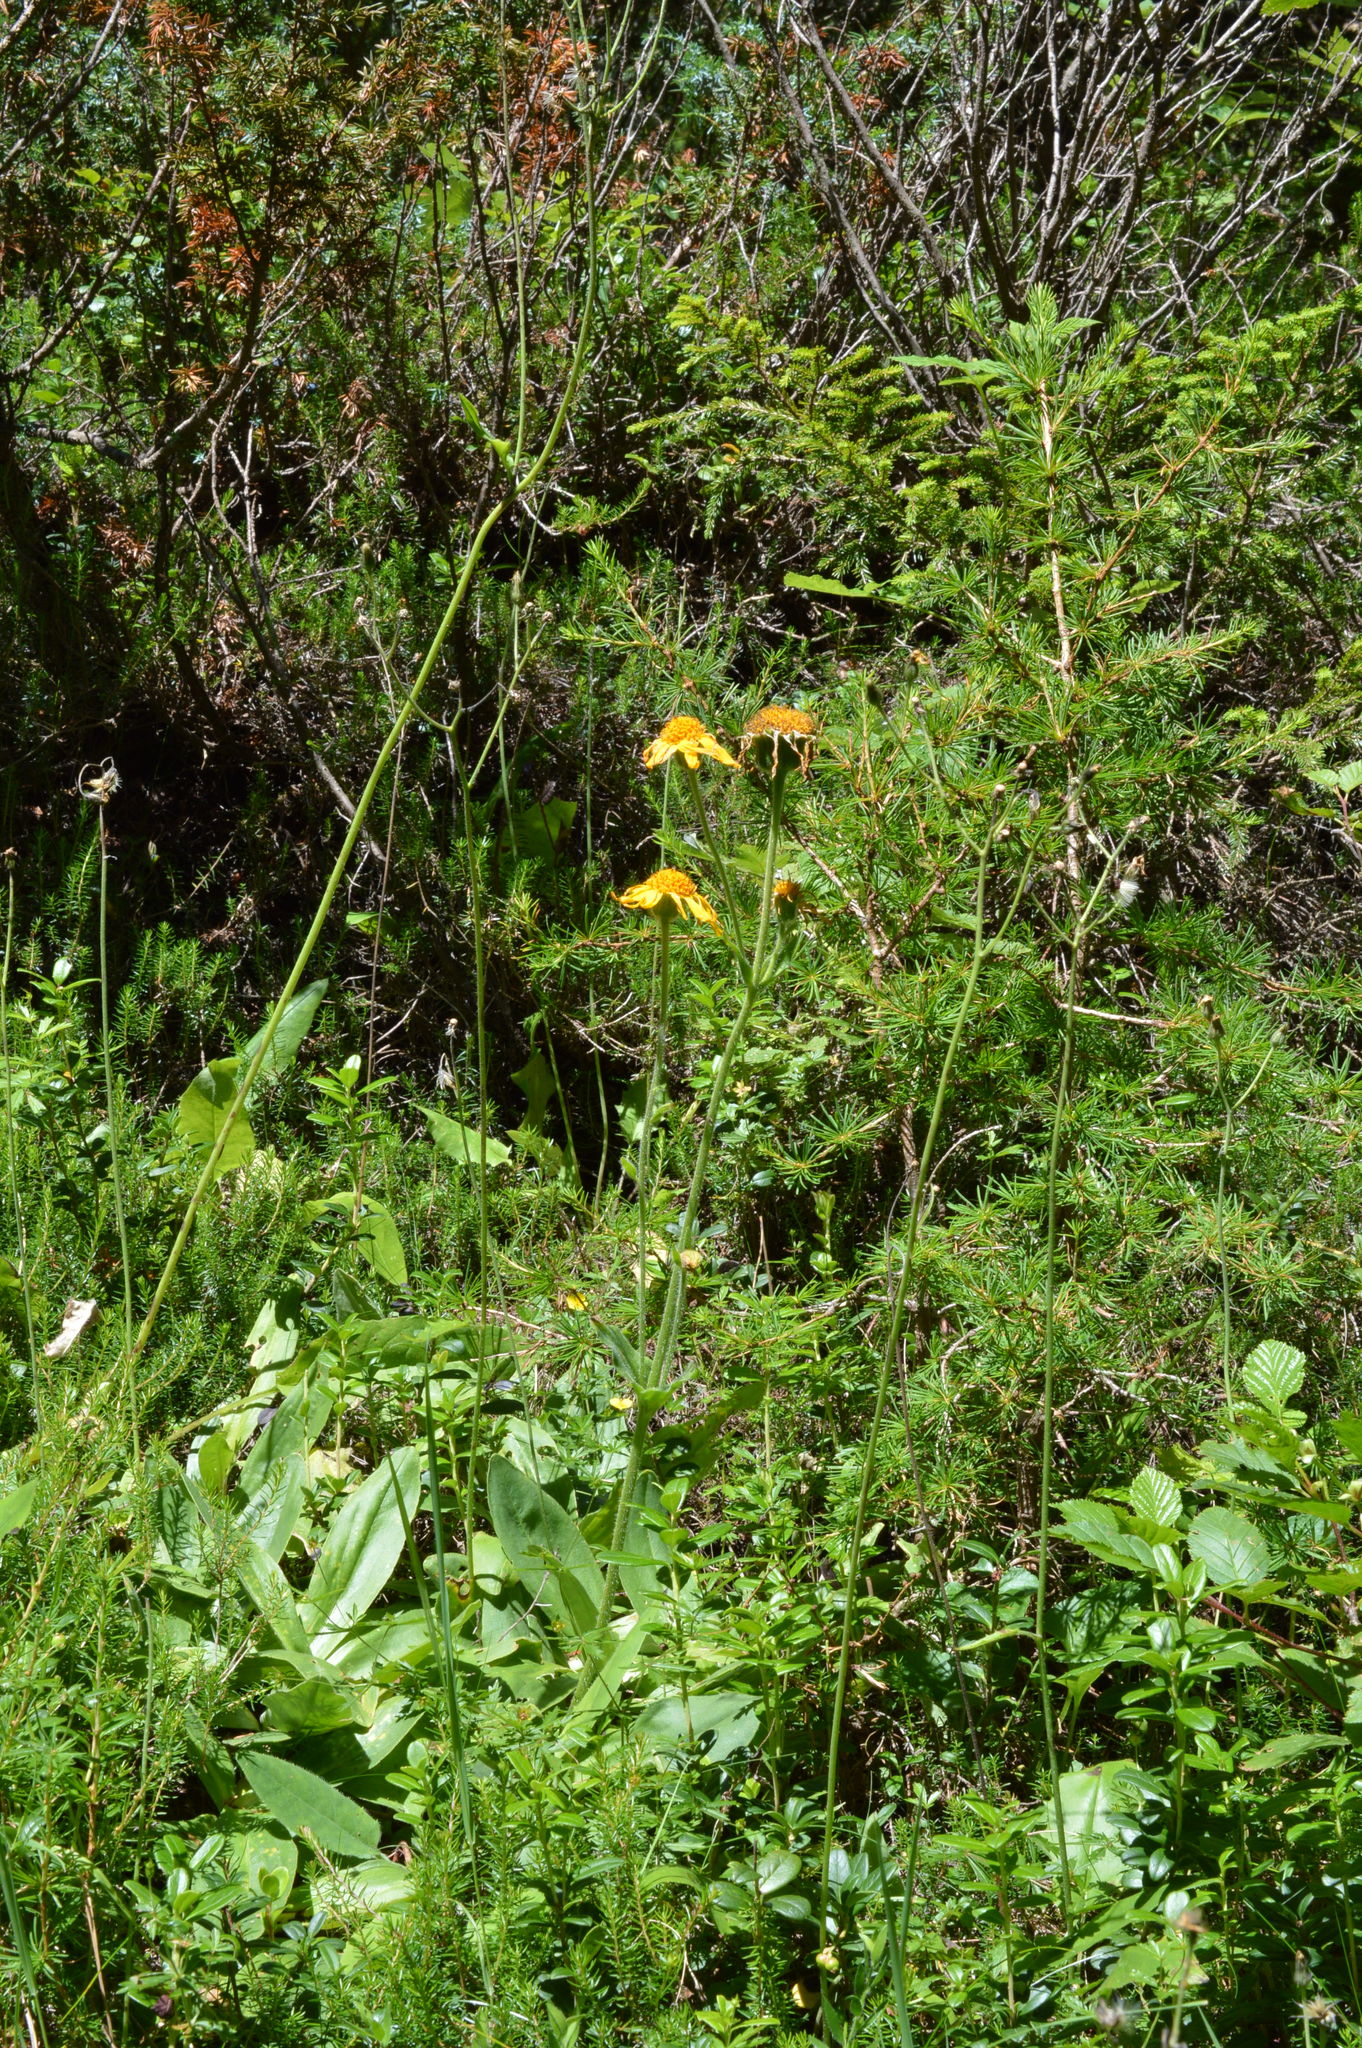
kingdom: Plantae
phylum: Tracheophyta
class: Magnoliopsida
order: Asterales
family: Asteraceae
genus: Arnica
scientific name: Arnica montana
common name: Leopard's bane
